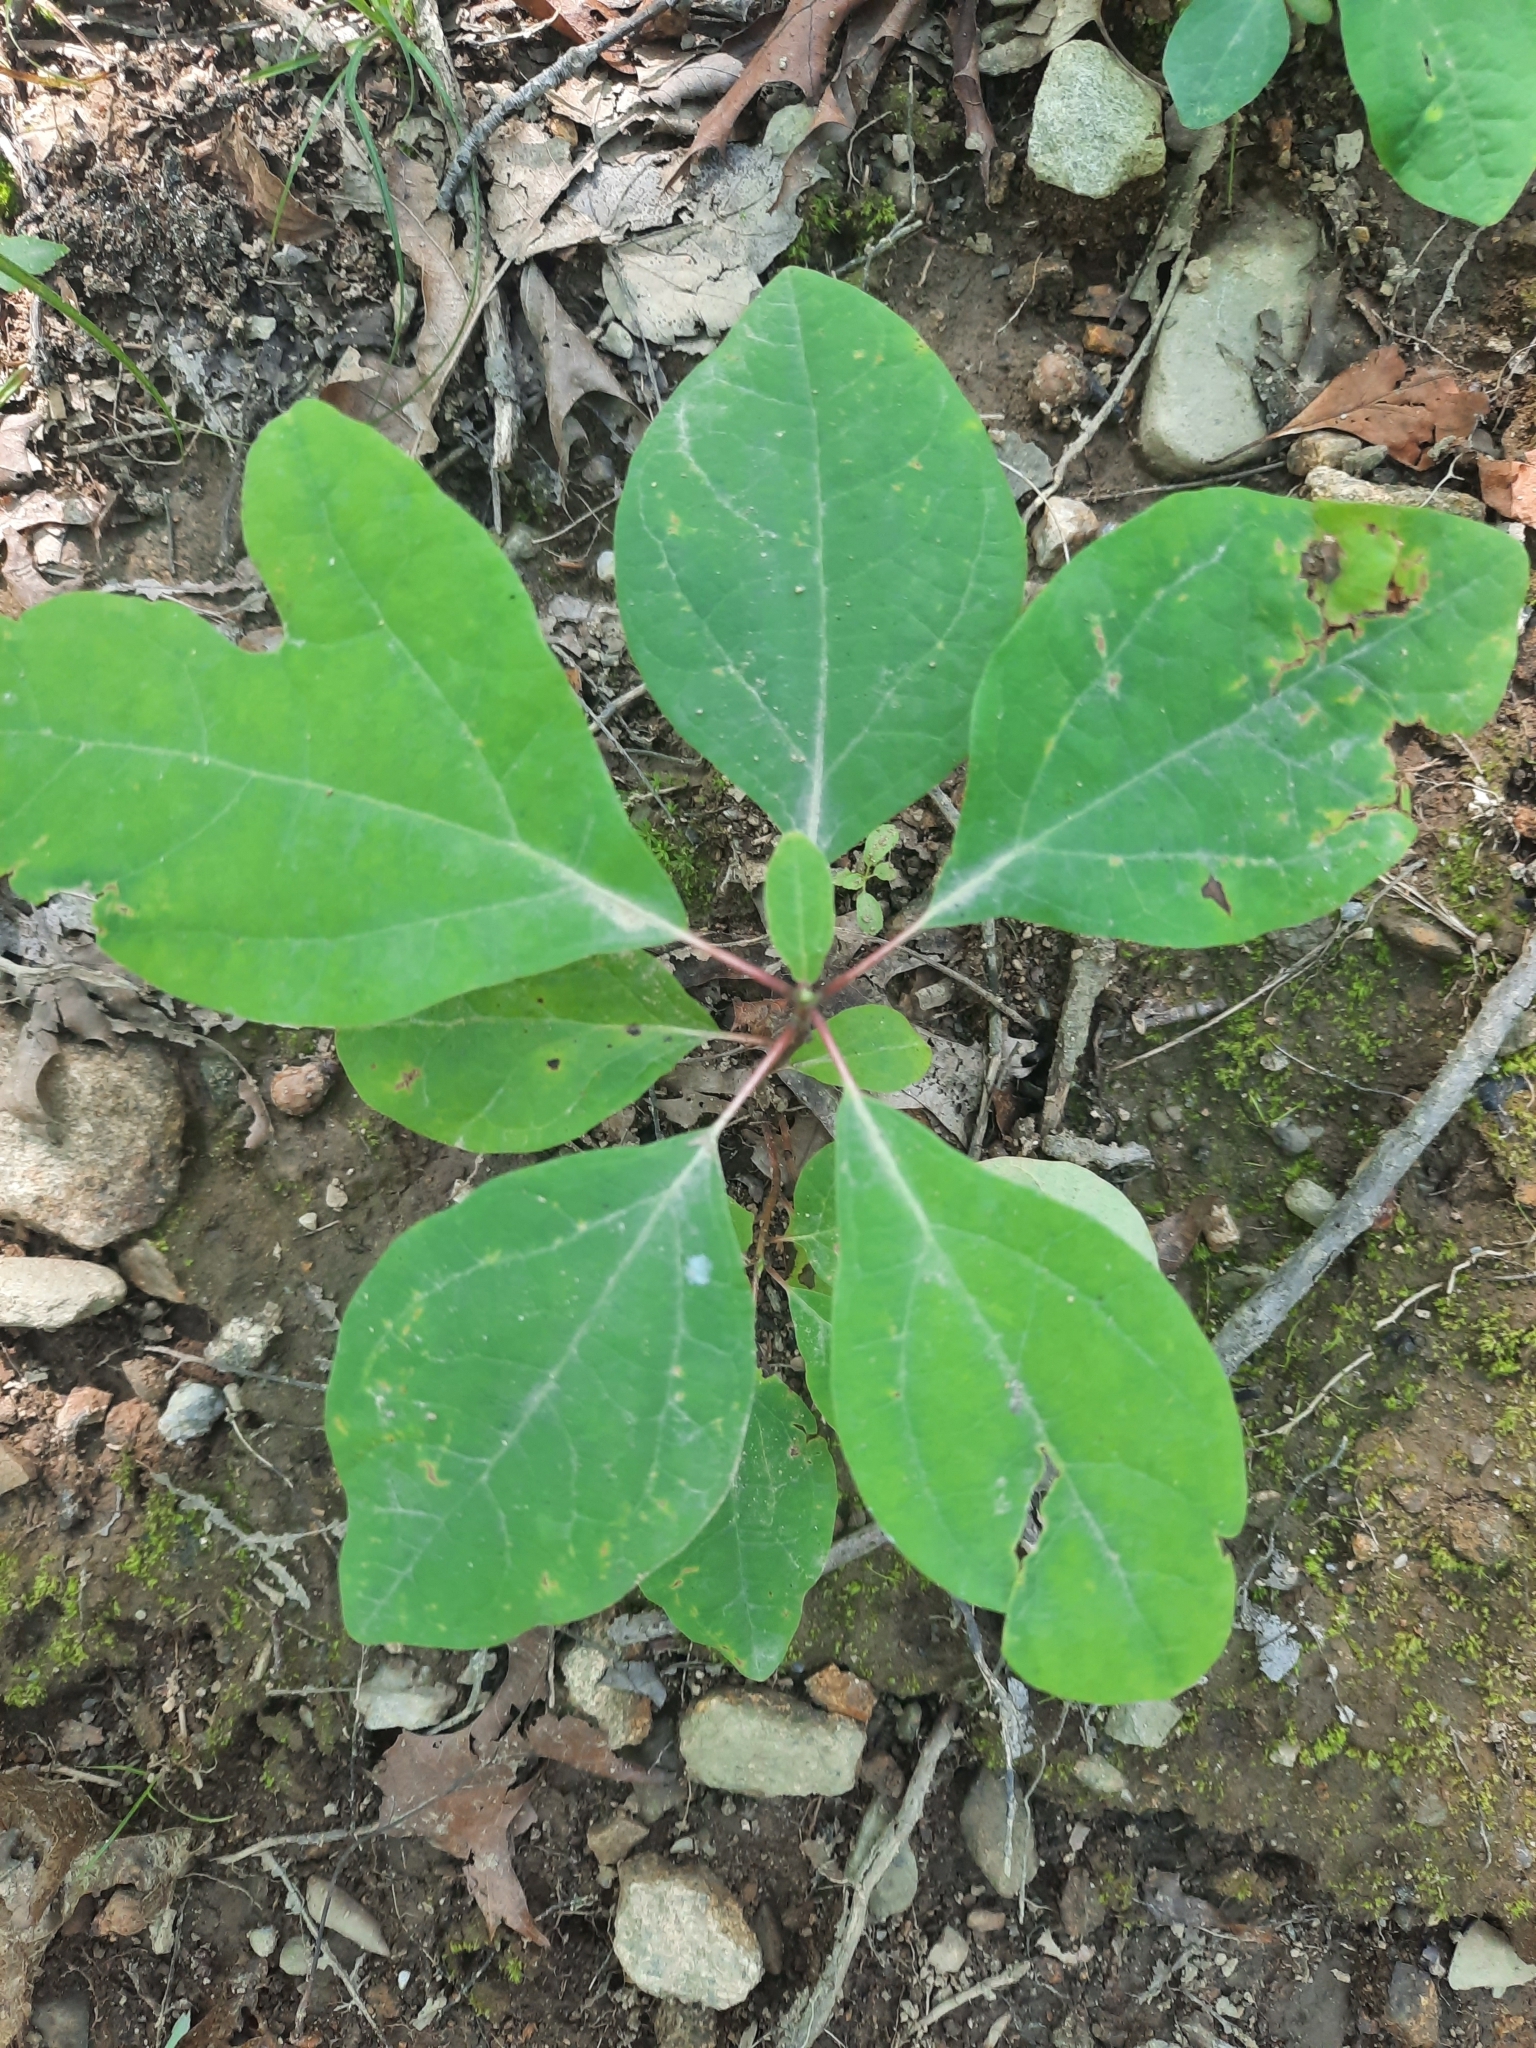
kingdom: Plantae
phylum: Tracheophyta
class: Magnoliopsida
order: Laurales
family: Lauraceae
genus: Sassafras
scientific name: Sassafras albidum
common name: Sassafras
